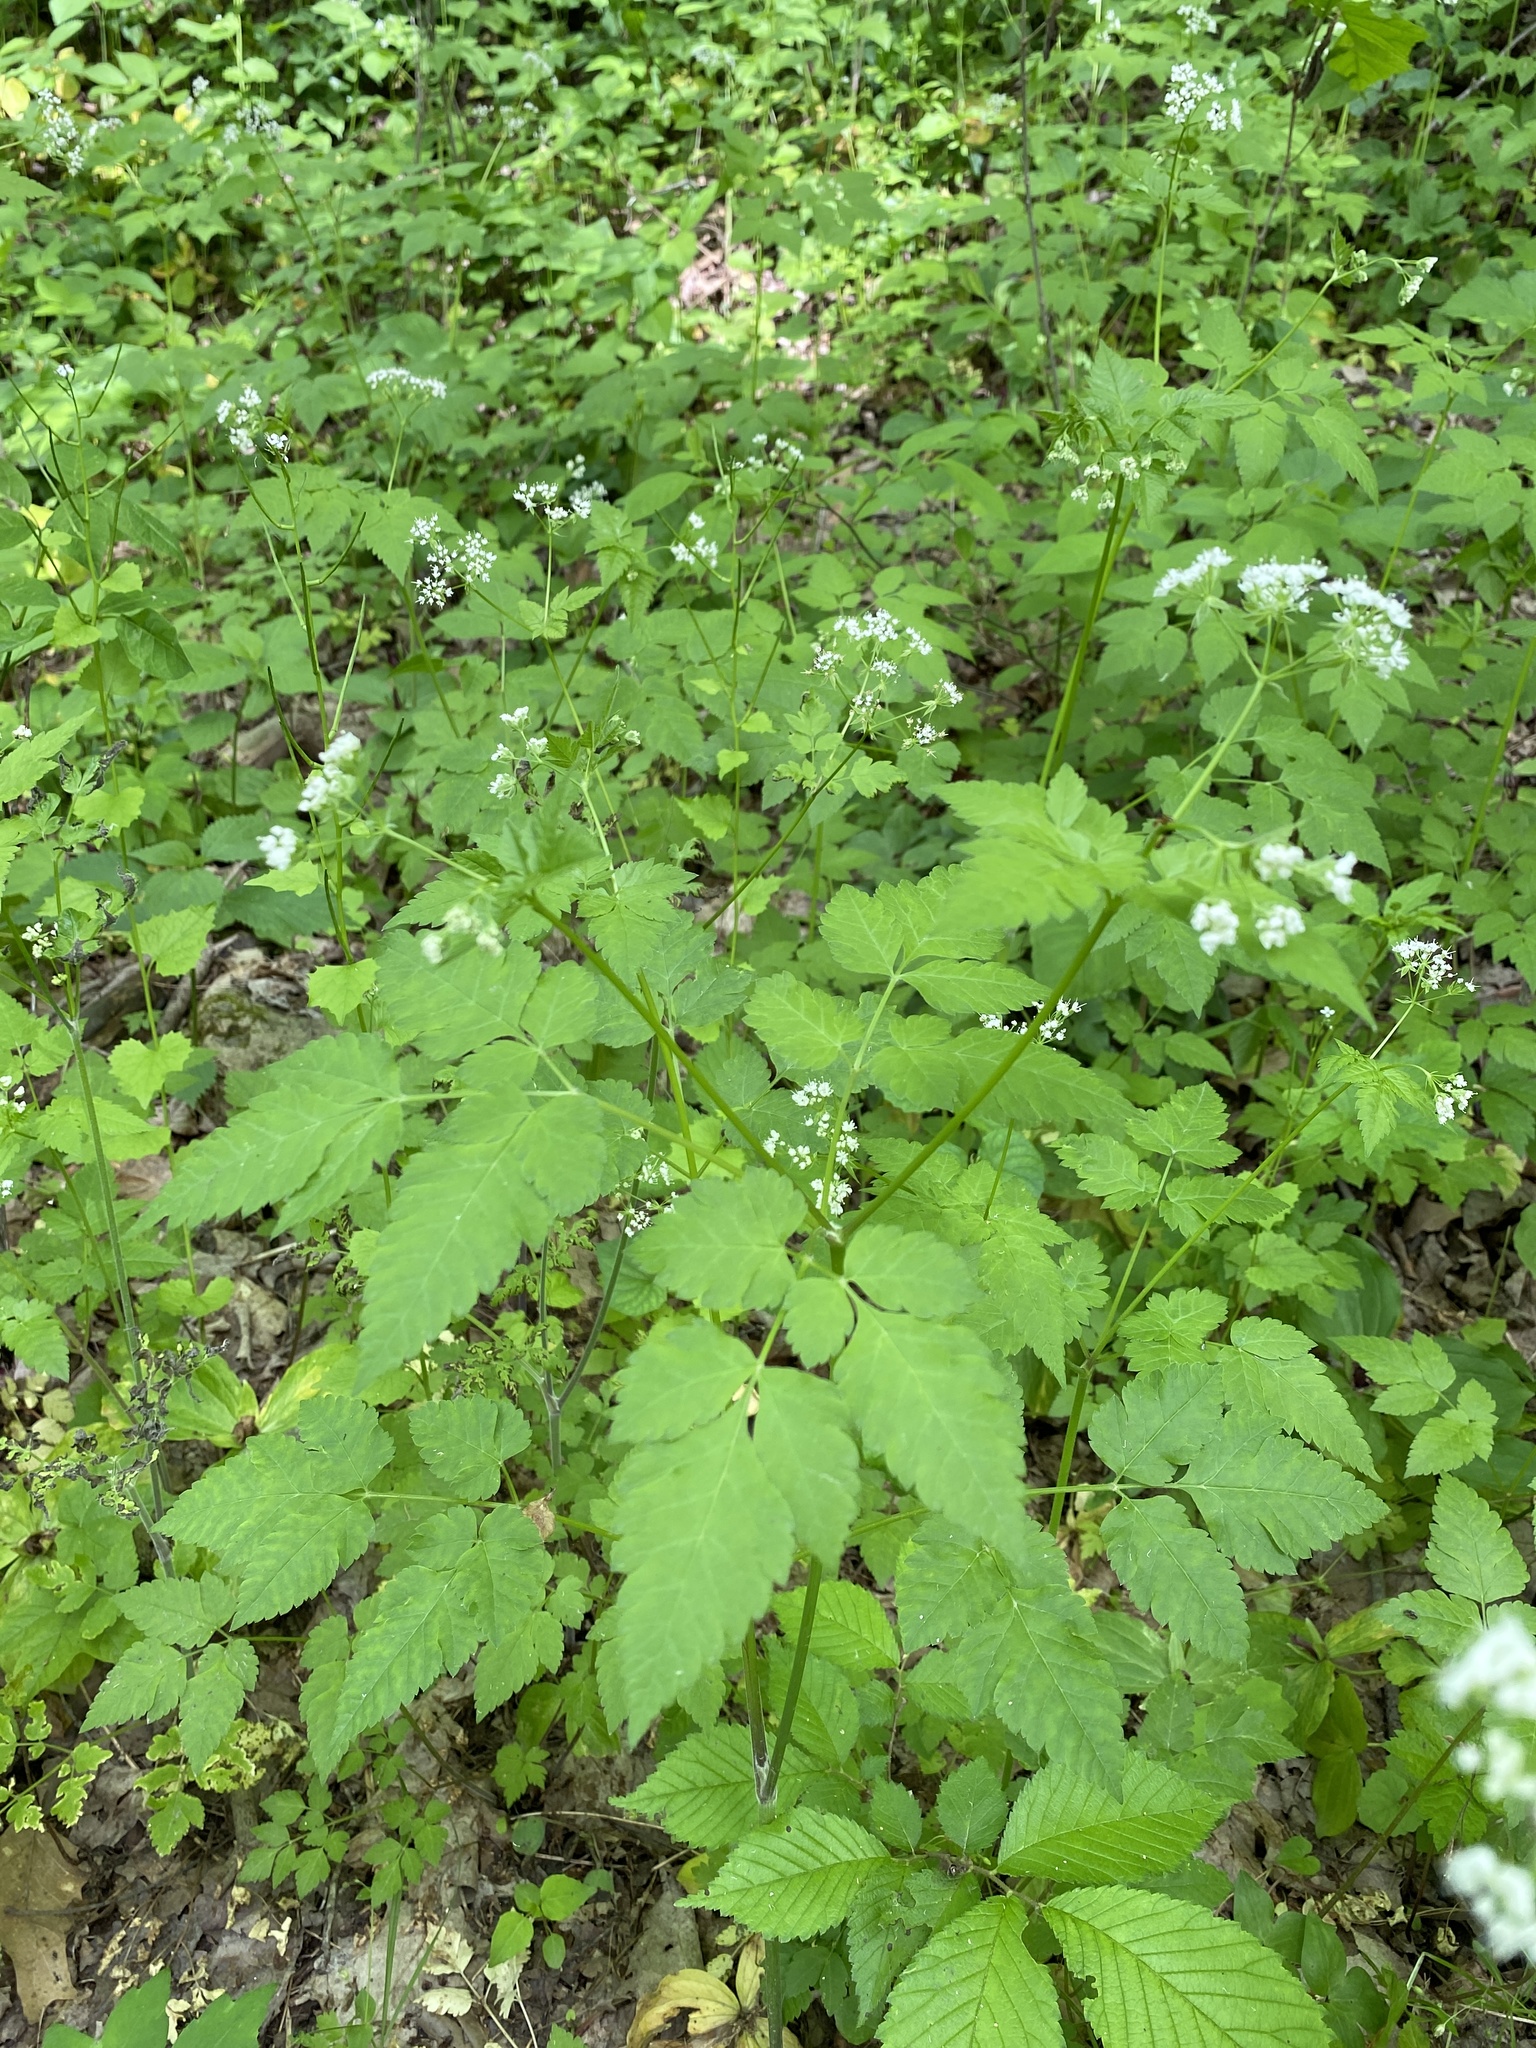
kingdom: Plantae
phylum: Tracheophyta
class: Magnoliopsida
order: Apiales
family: Apiaceae
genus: Osmorhiza
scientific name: Osmorhiza longistylis
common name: Smooth sweet cicely
